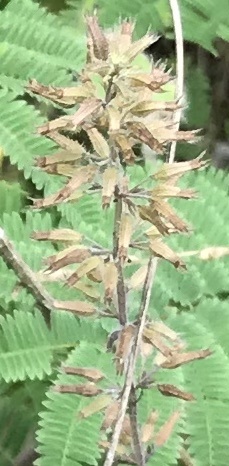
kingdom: Plantae
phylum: Tracheophyta
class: Magnoliopsida
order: Lamiales
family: Lamiaceae
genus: Hedeoma
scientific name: Hedeoma acinoides
